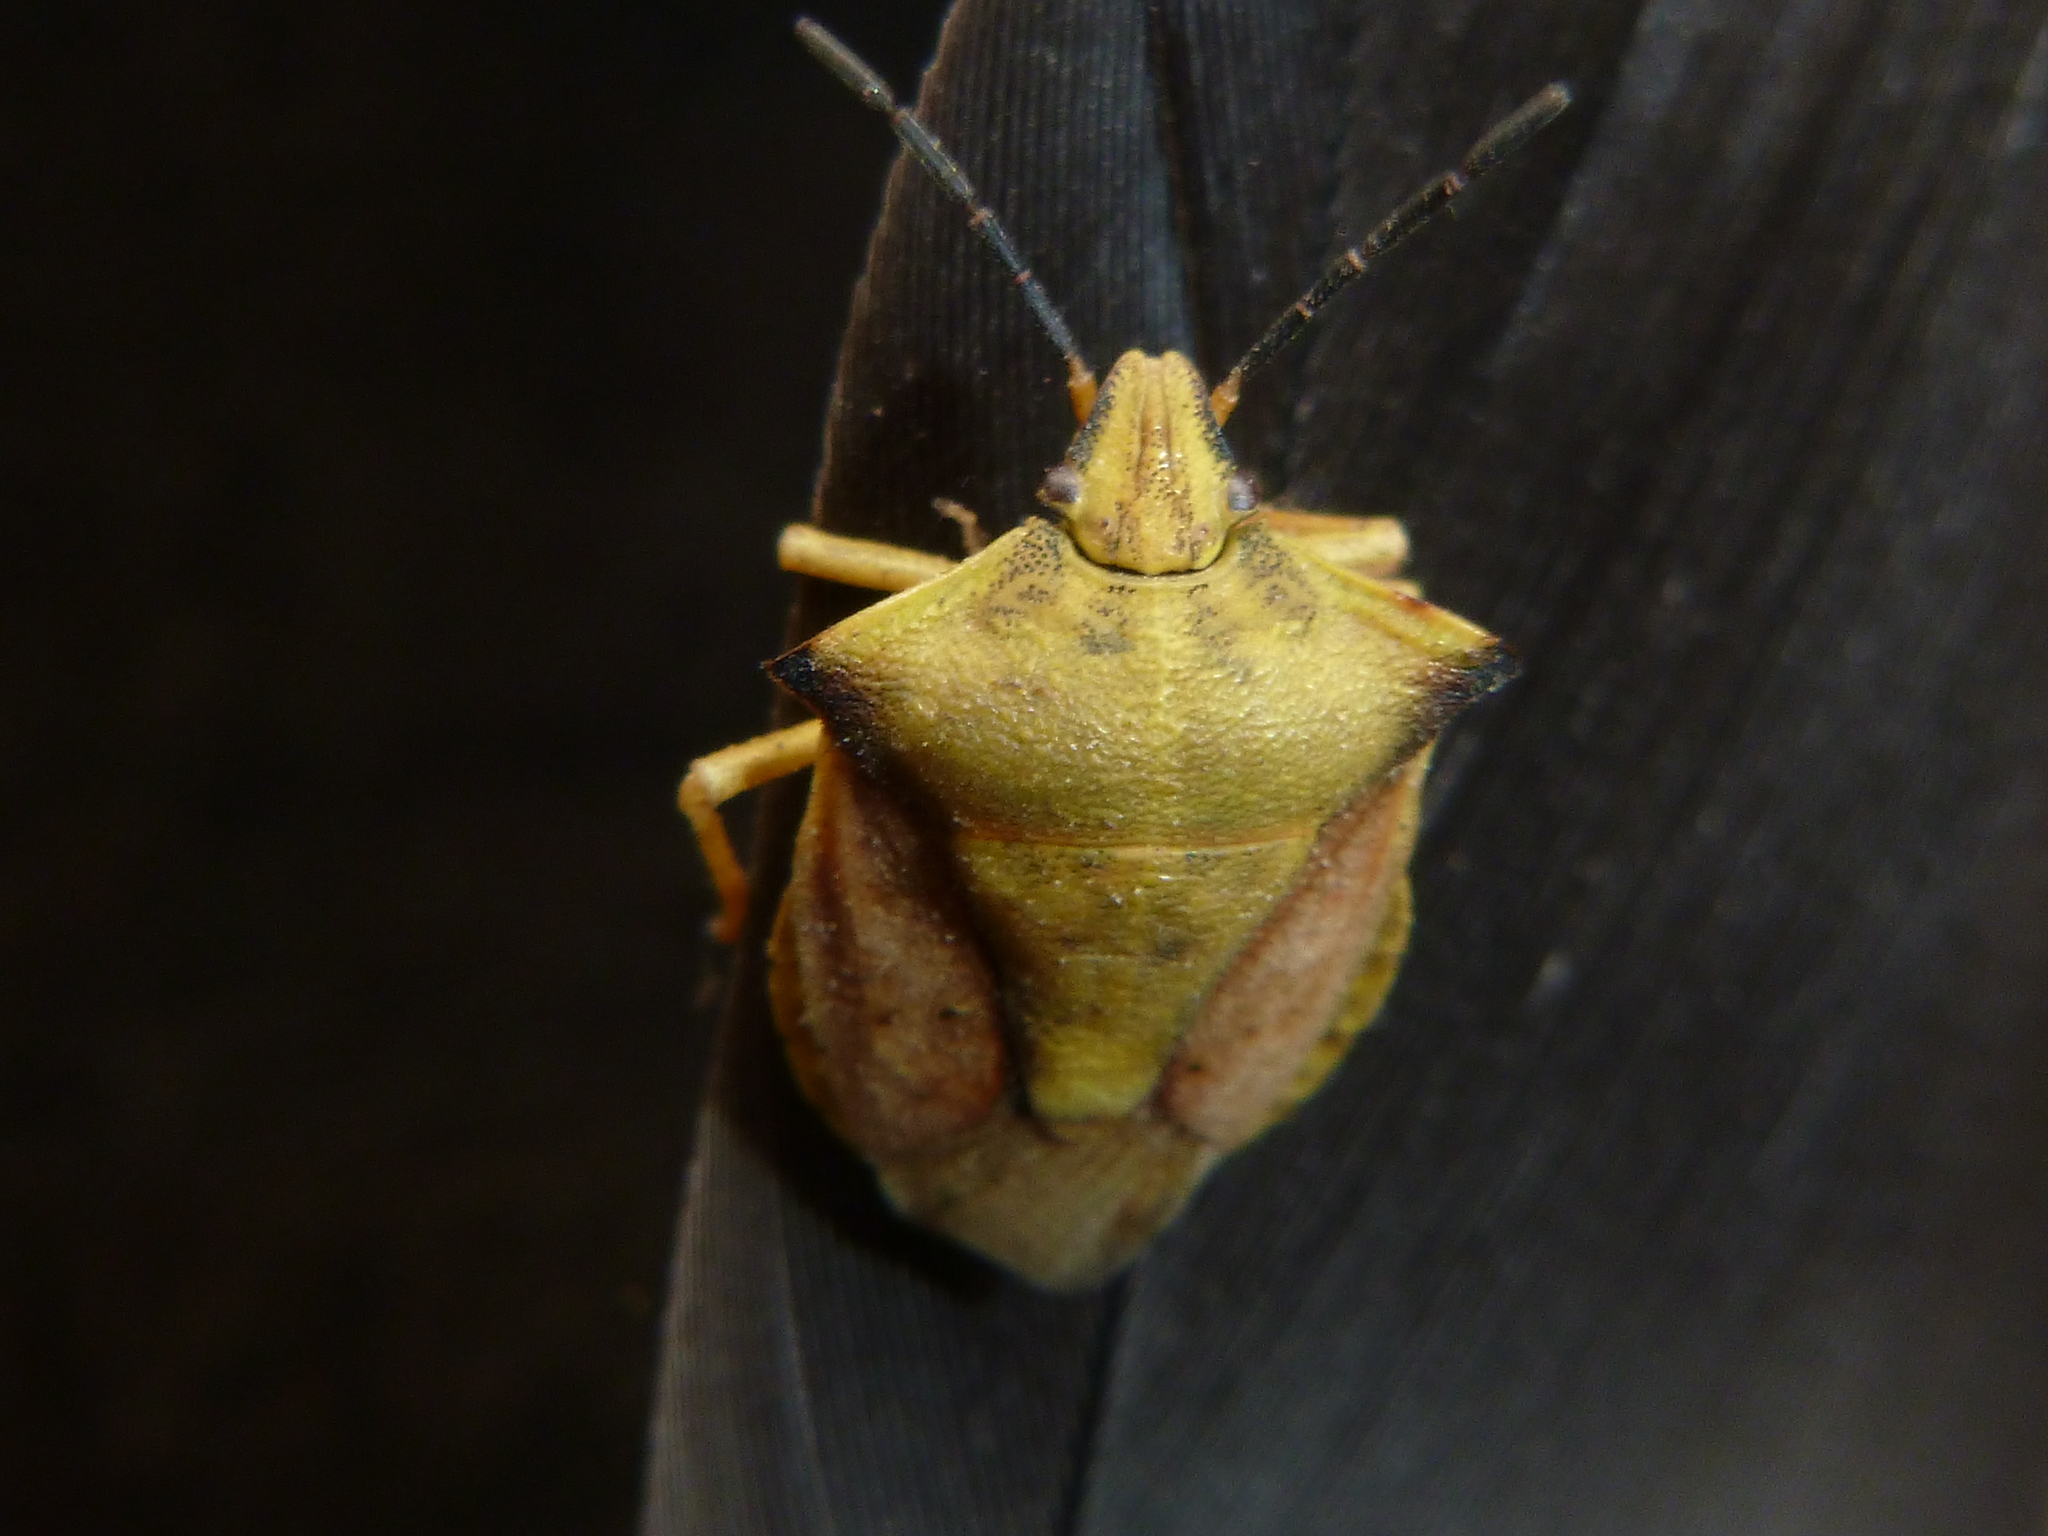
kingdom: Animalia
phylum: Arthropoda
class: Insecta
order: Hemiptera
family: Pentatomidae
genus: Carpocoris
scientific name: Carpocoris fuscispinus
